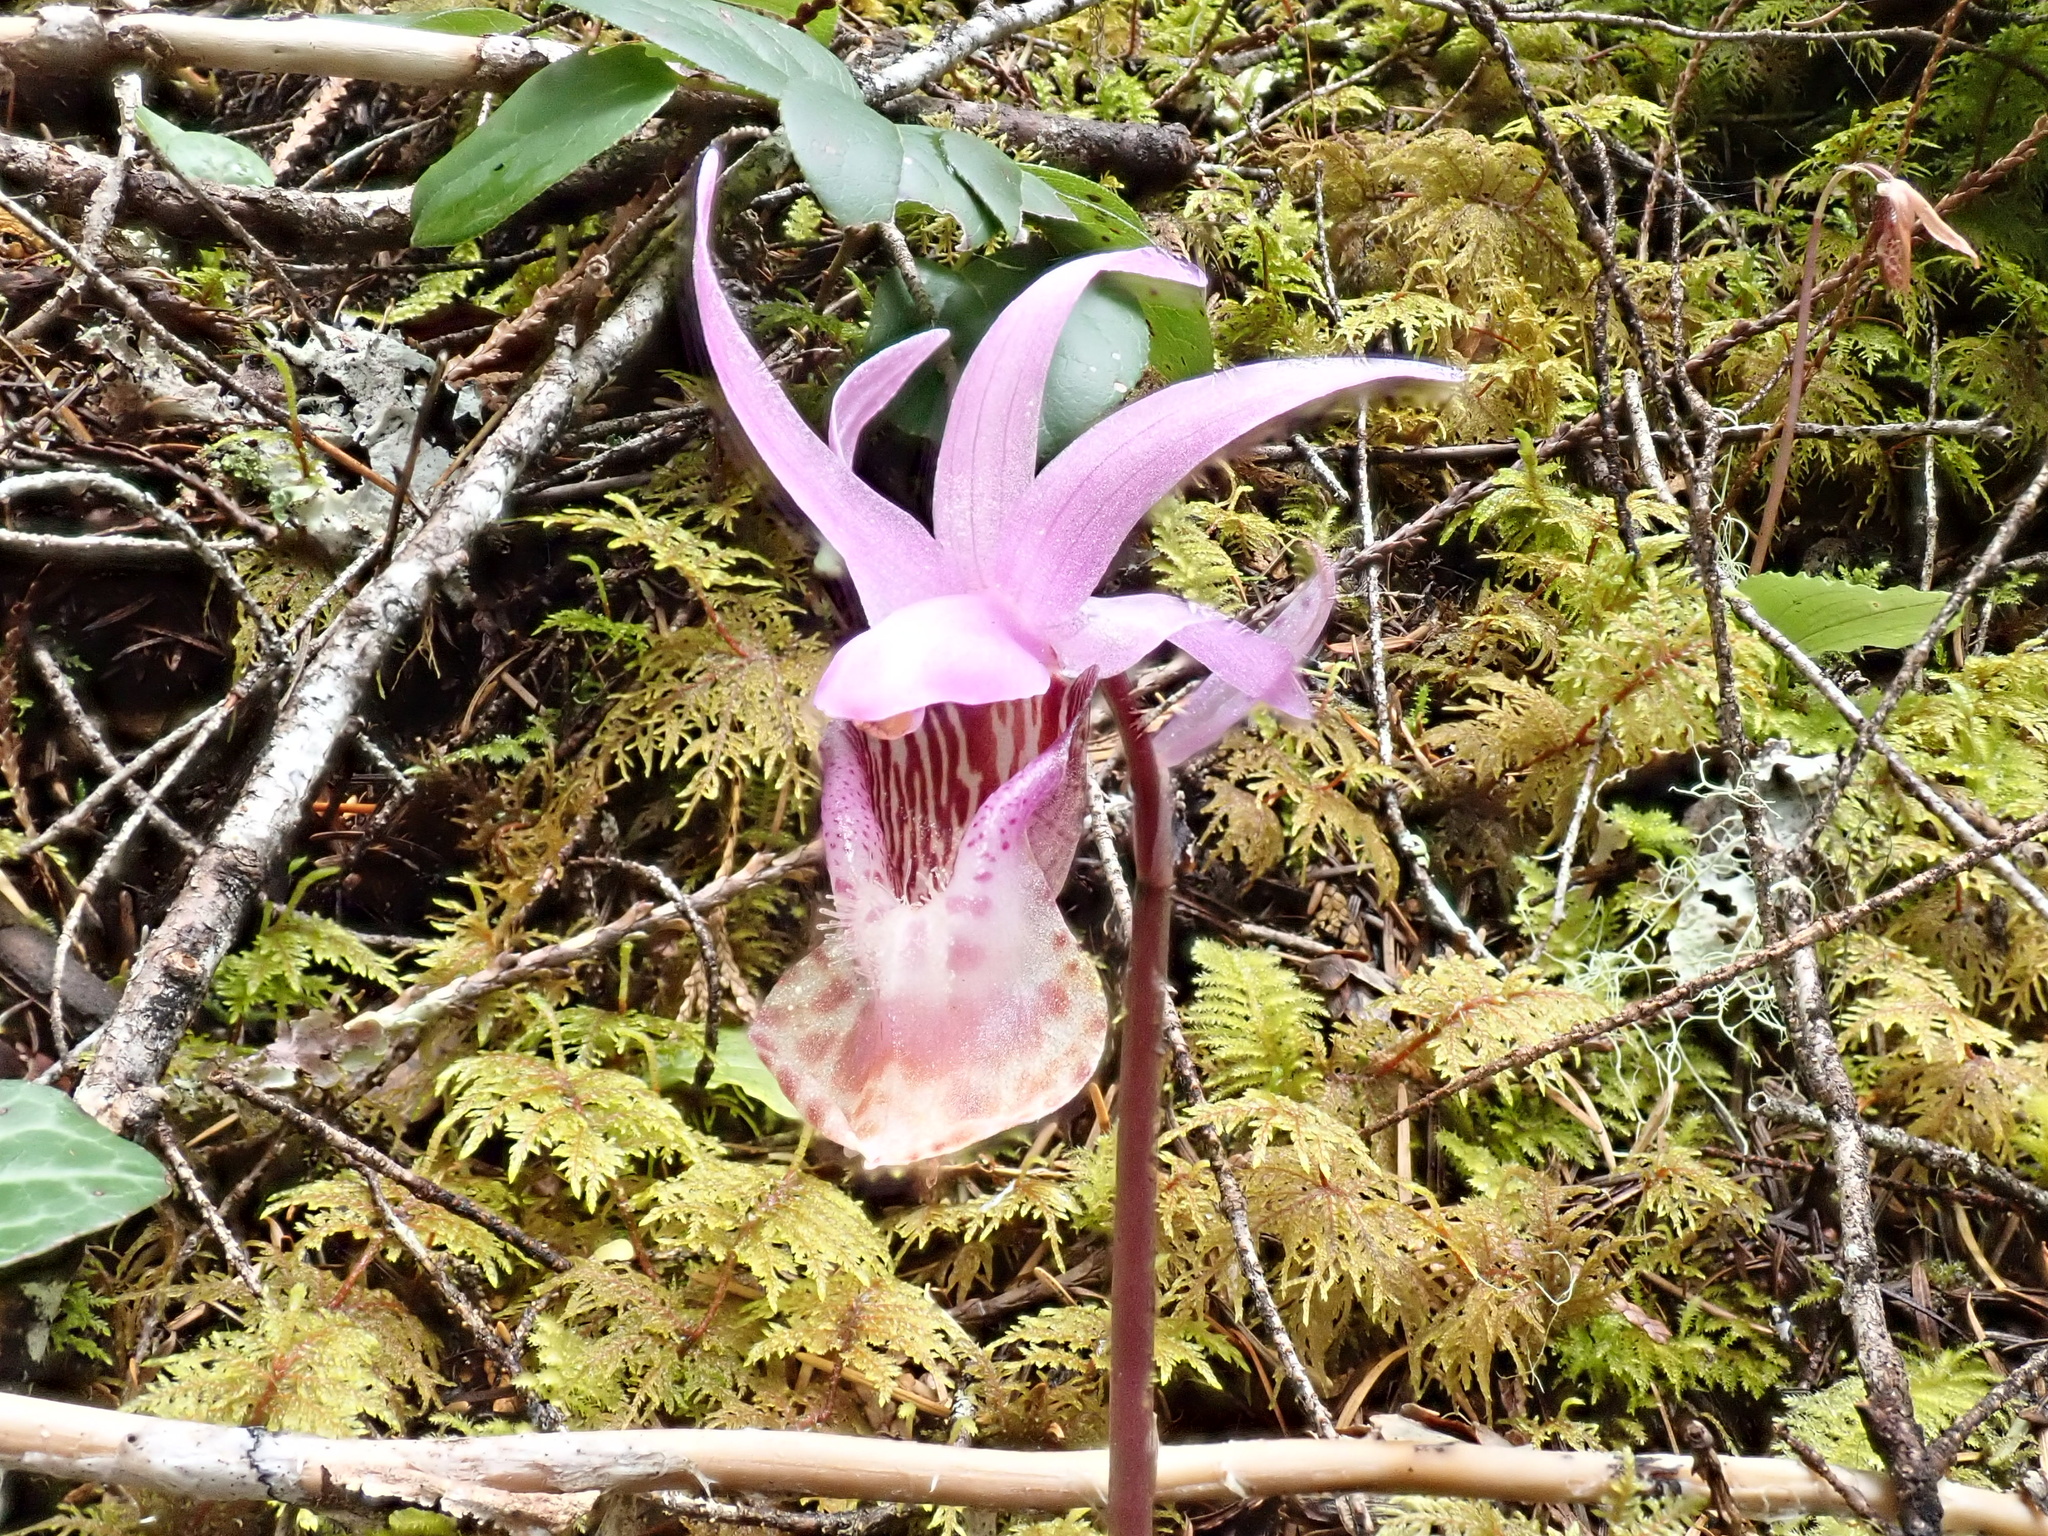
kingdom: Plantae
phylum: Tracheophyta
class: Liliopsida
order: Asparagales
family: Orchidaceae
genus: Calypso
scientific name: Calypso bulbosa
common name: Calypso
